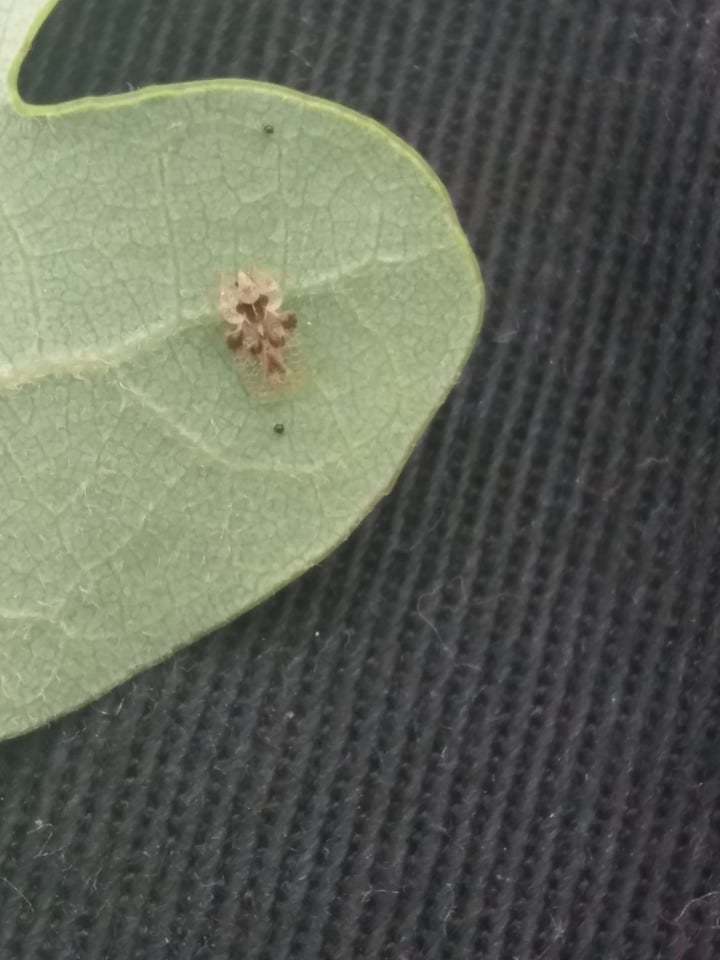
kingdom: Animalia
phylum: Arthropoda
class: Insecta
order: Hemiptera
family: Tingidae
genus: Corythucha
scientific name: Corythucha arcuata
